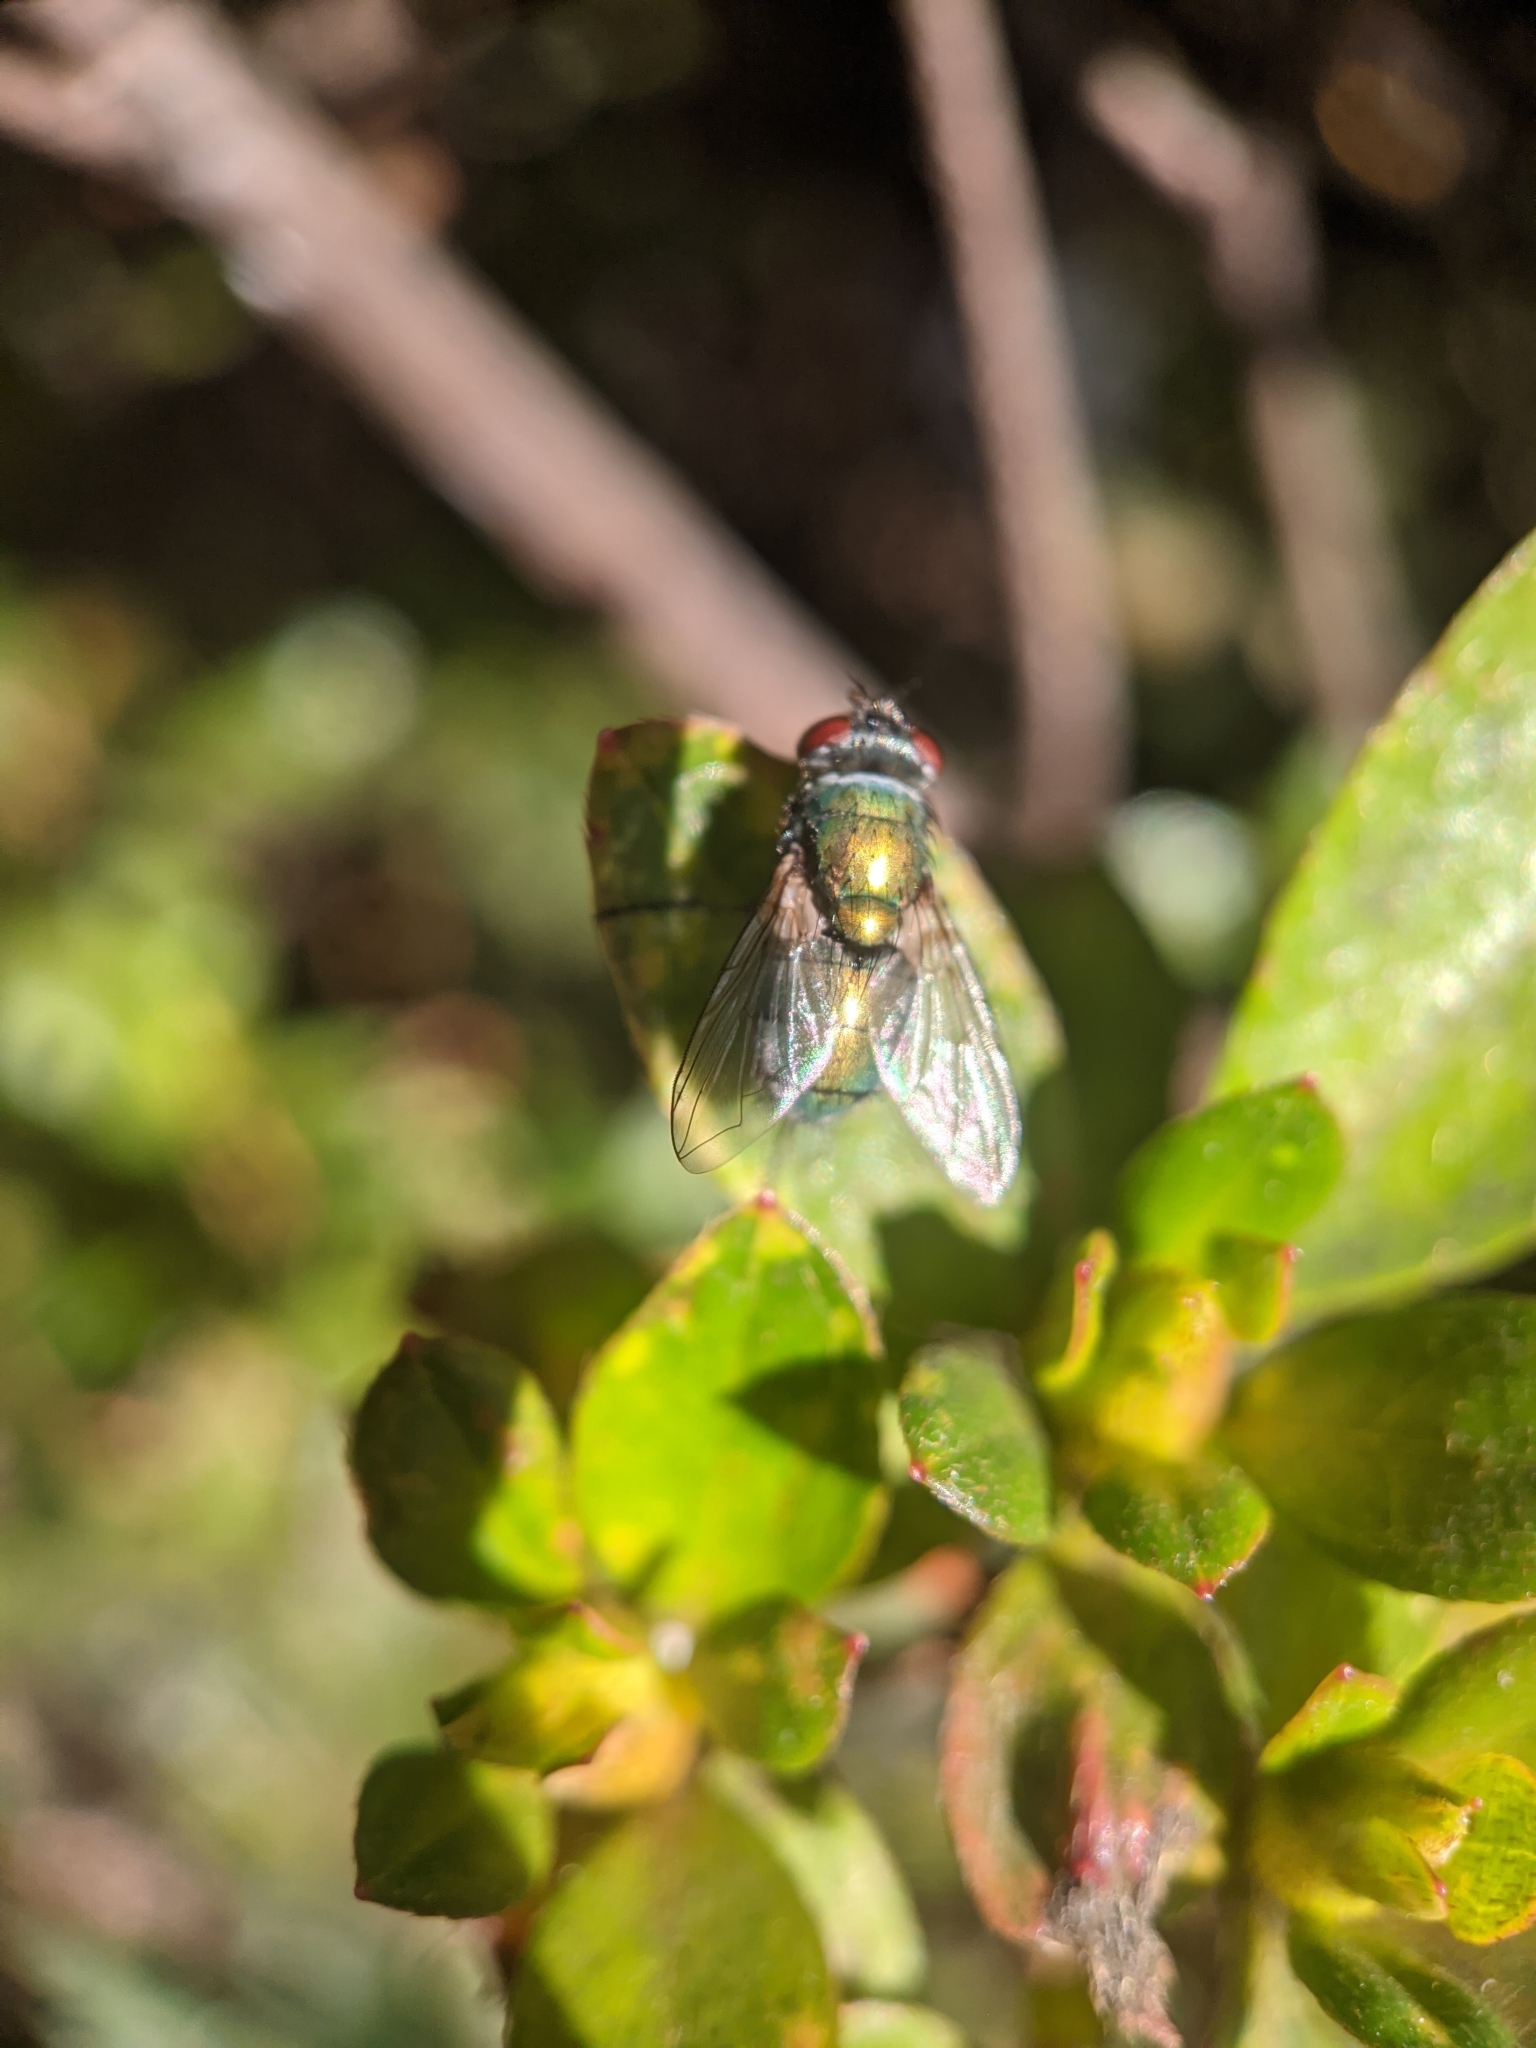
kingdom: Animalia
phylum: Arthropoda
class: Insecta
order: Diptera
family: Calliphoridae
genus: Lucilia
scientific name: Lucilia sericata
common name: Blow fly
